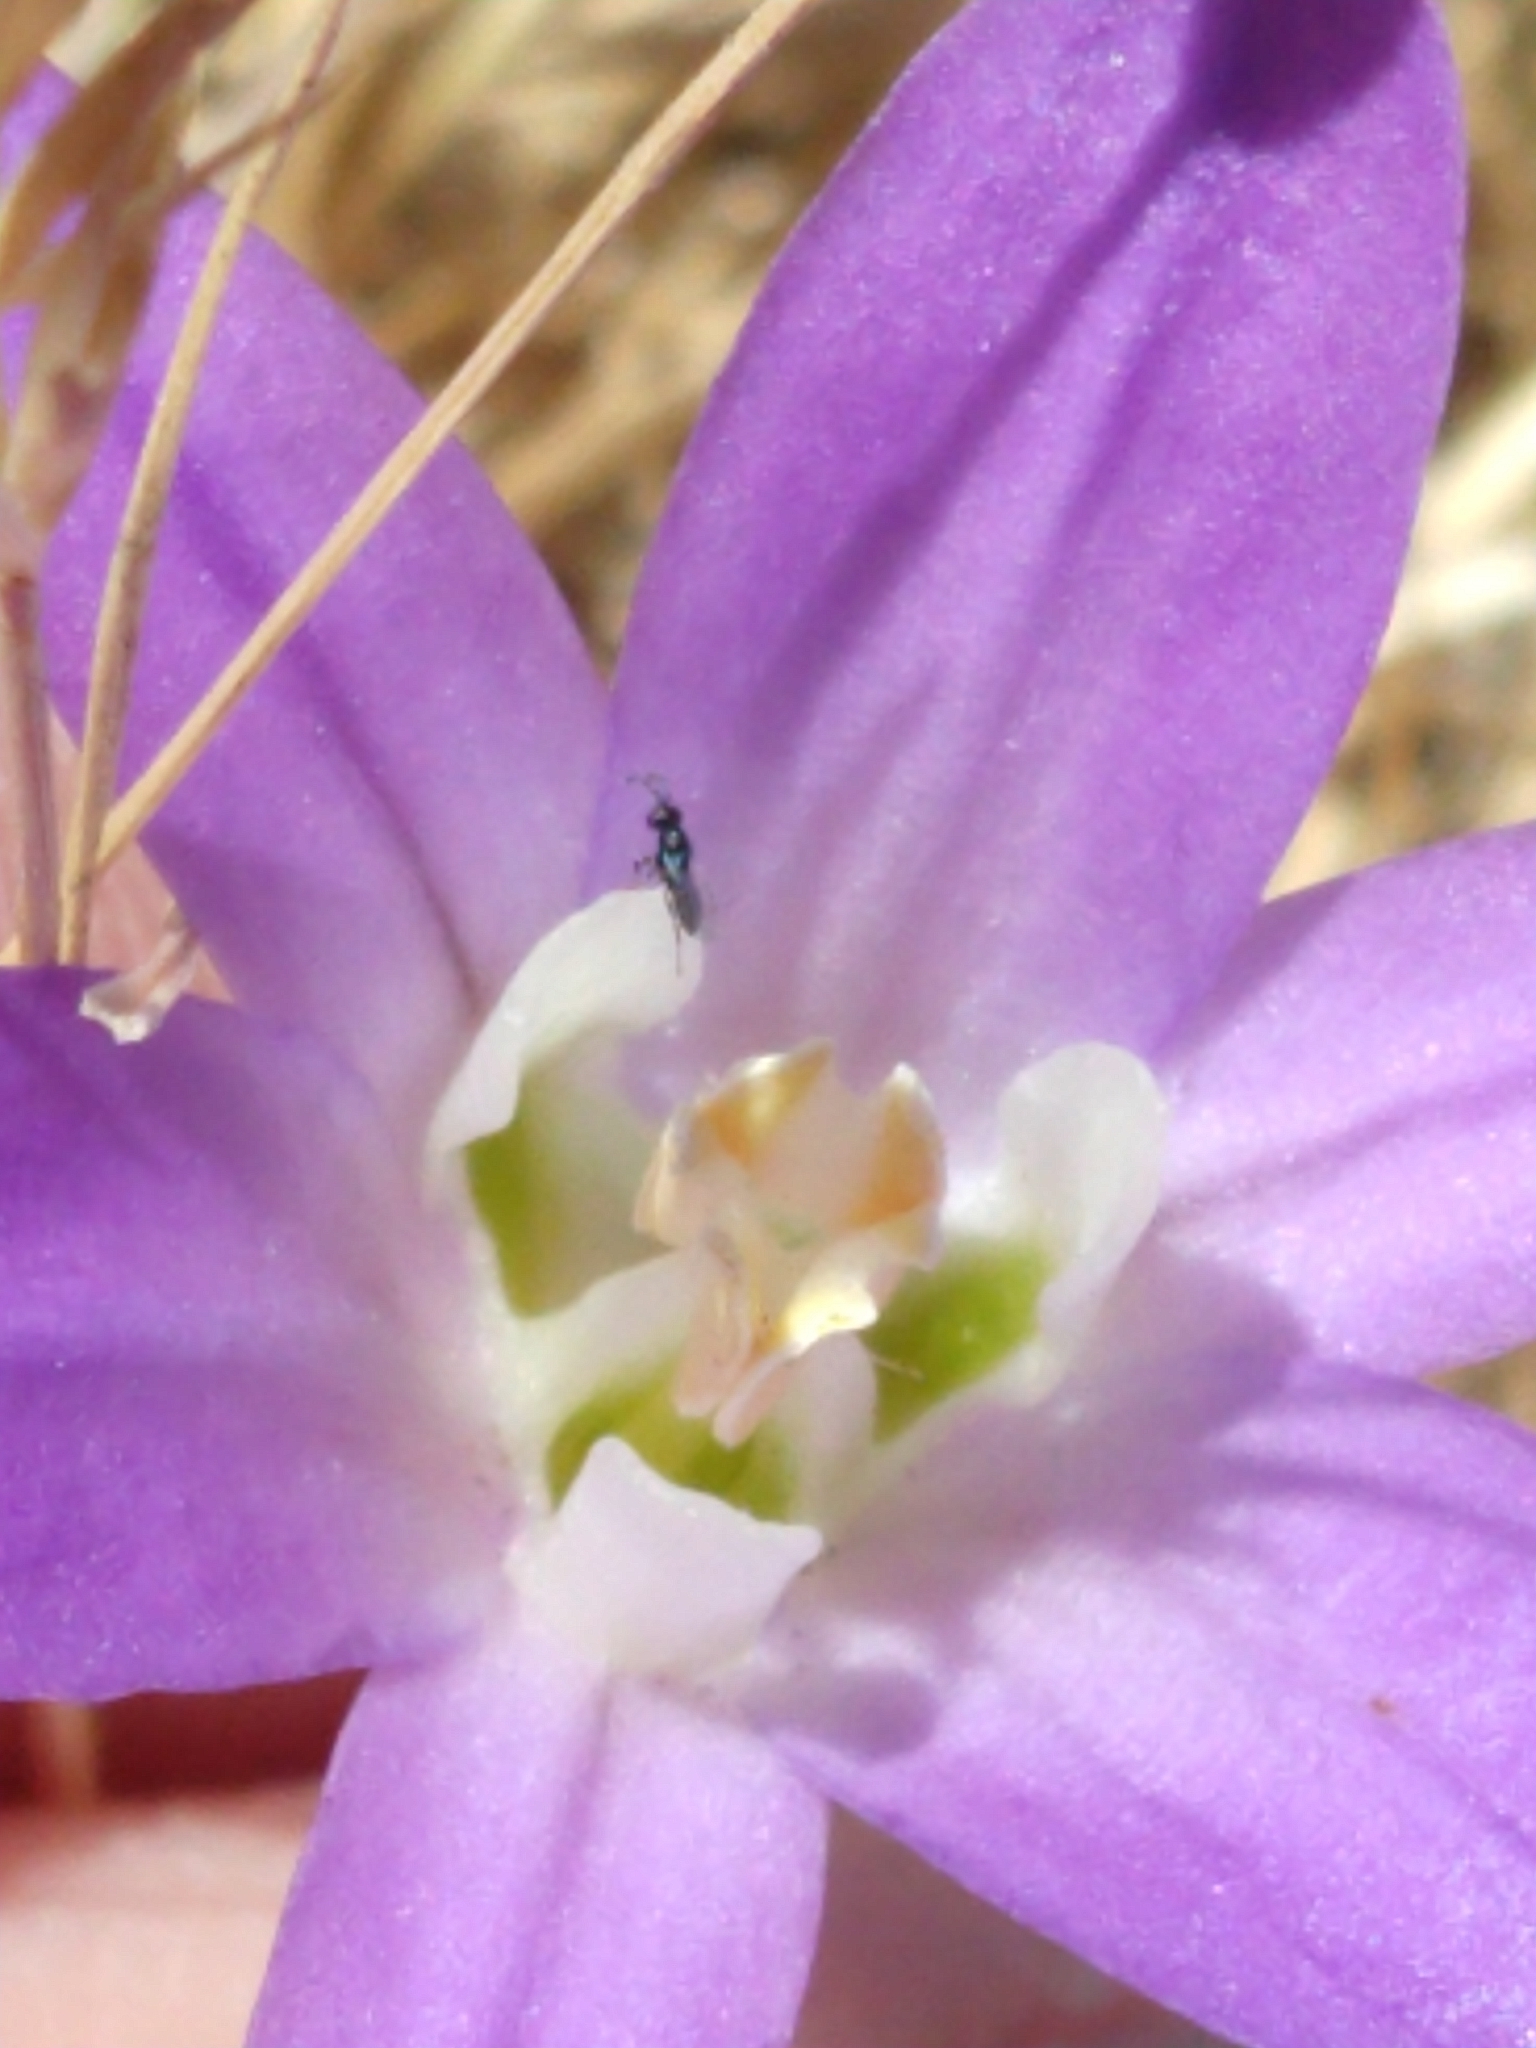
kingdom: Plantae
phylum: Tracheophyta
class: Liliopsida
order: Asparagales
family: Asparagaceae
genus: Brodiaea
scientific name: Brodiaea terrestris
